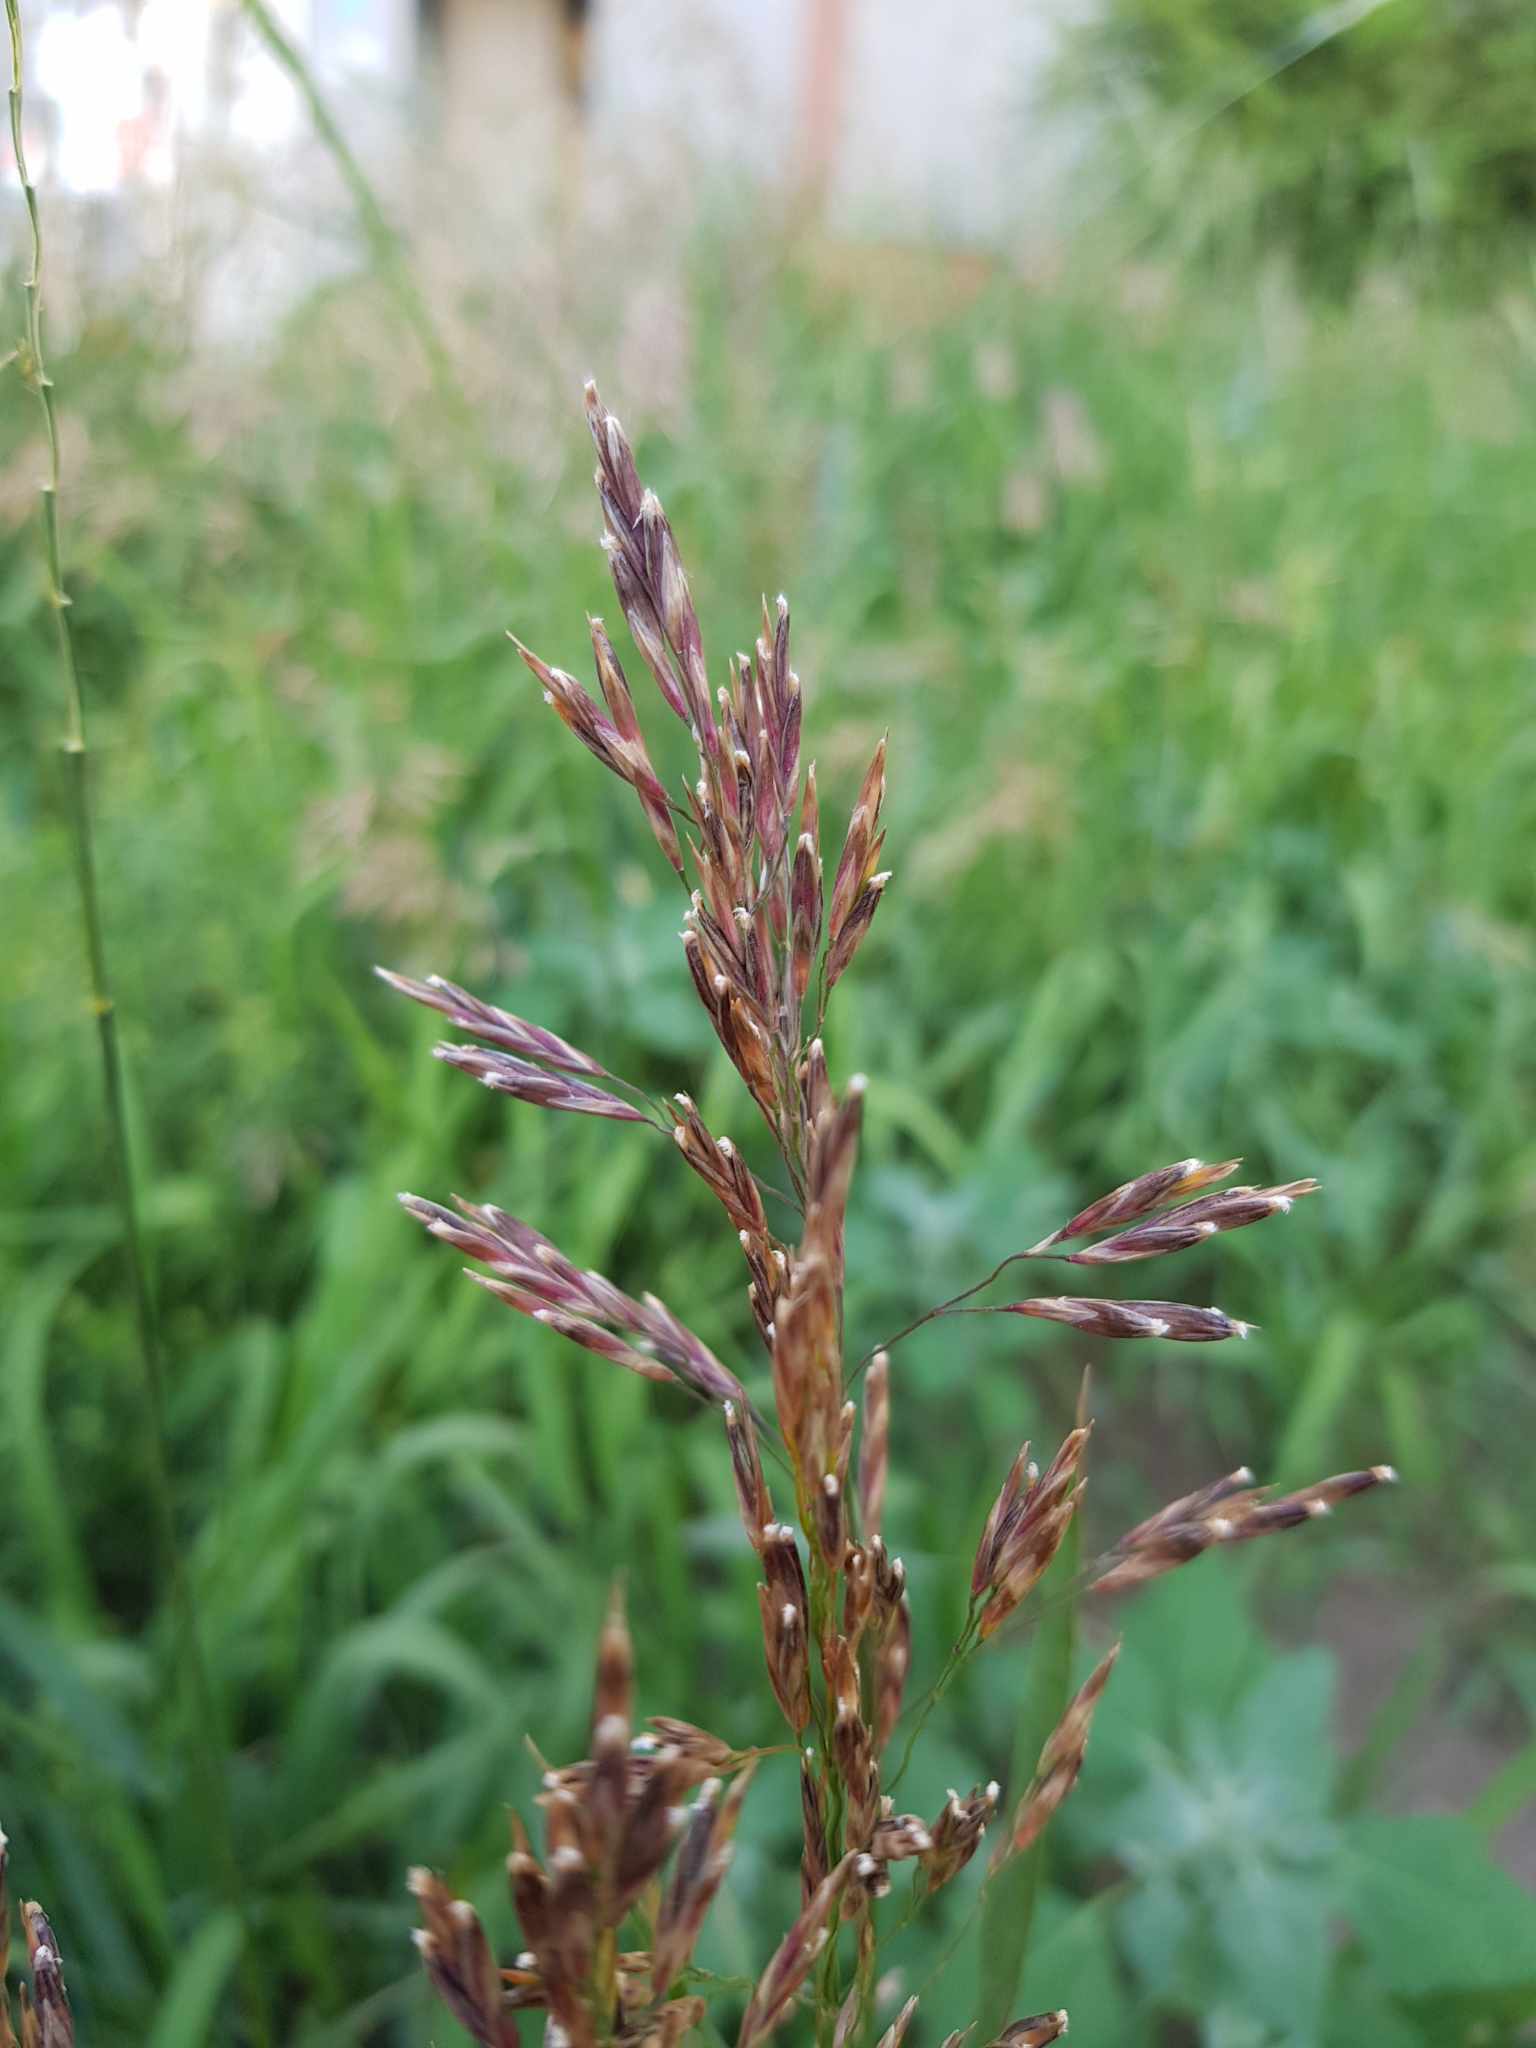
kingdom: Plantae
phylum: Tracheophyta
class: Liliopsida
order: Poales
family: Poaceae
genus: Bromus
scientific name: Bromus inermis
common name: Smooth brome
